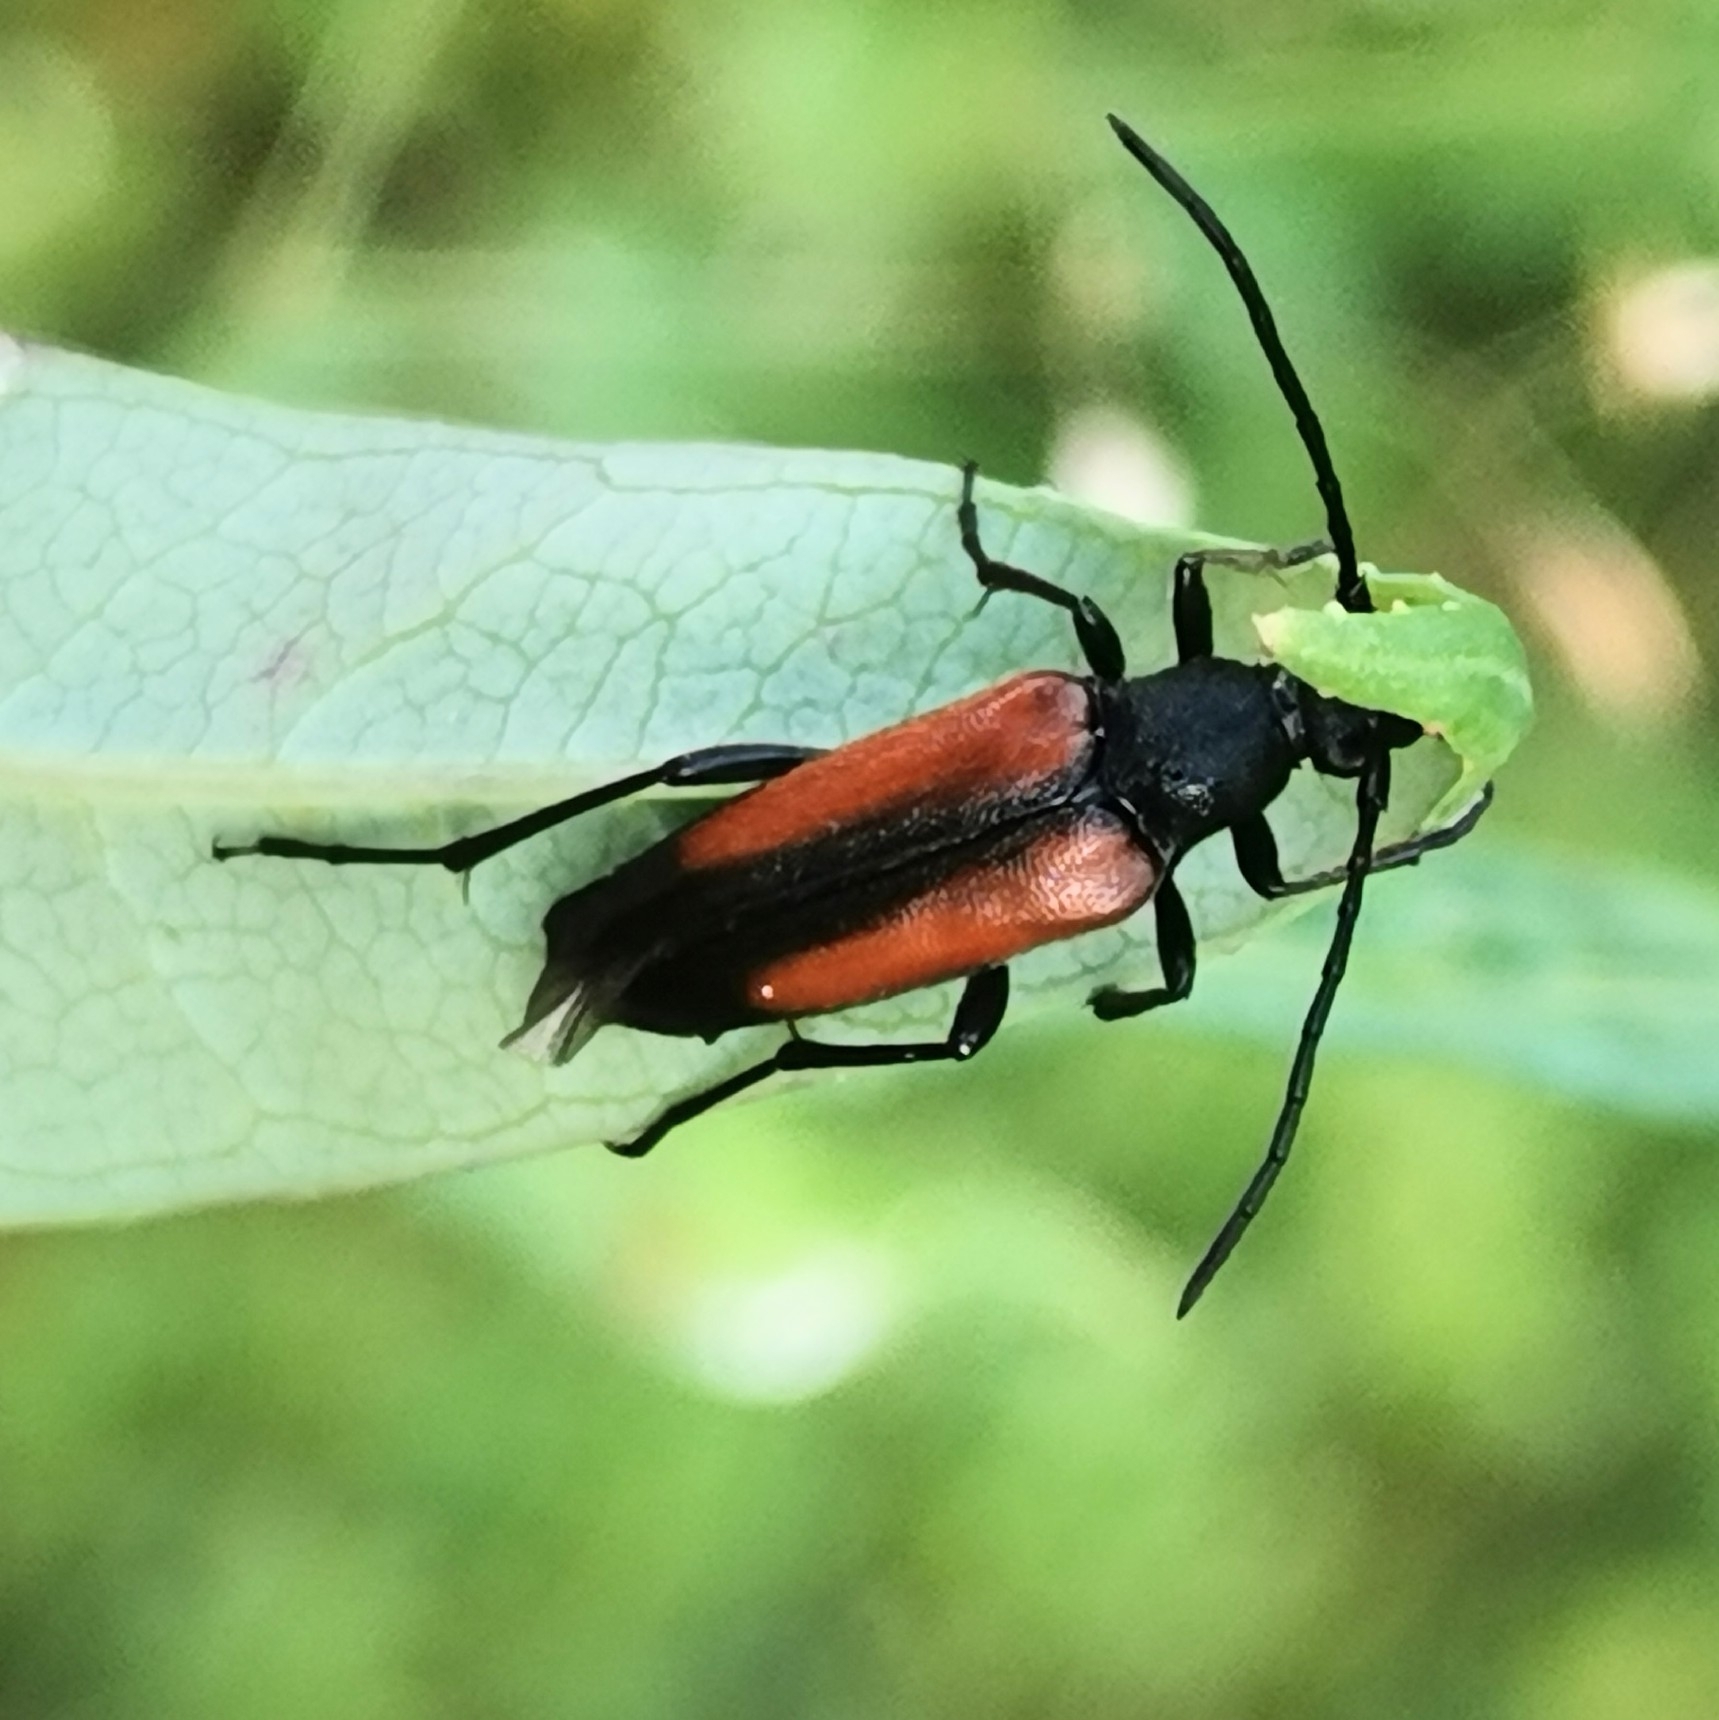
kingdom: Animalia
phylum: Arthropoda
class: Insecta
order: Coleoptera
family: Cerambycidae
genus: Stenurella
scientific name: Stenurella melanura
